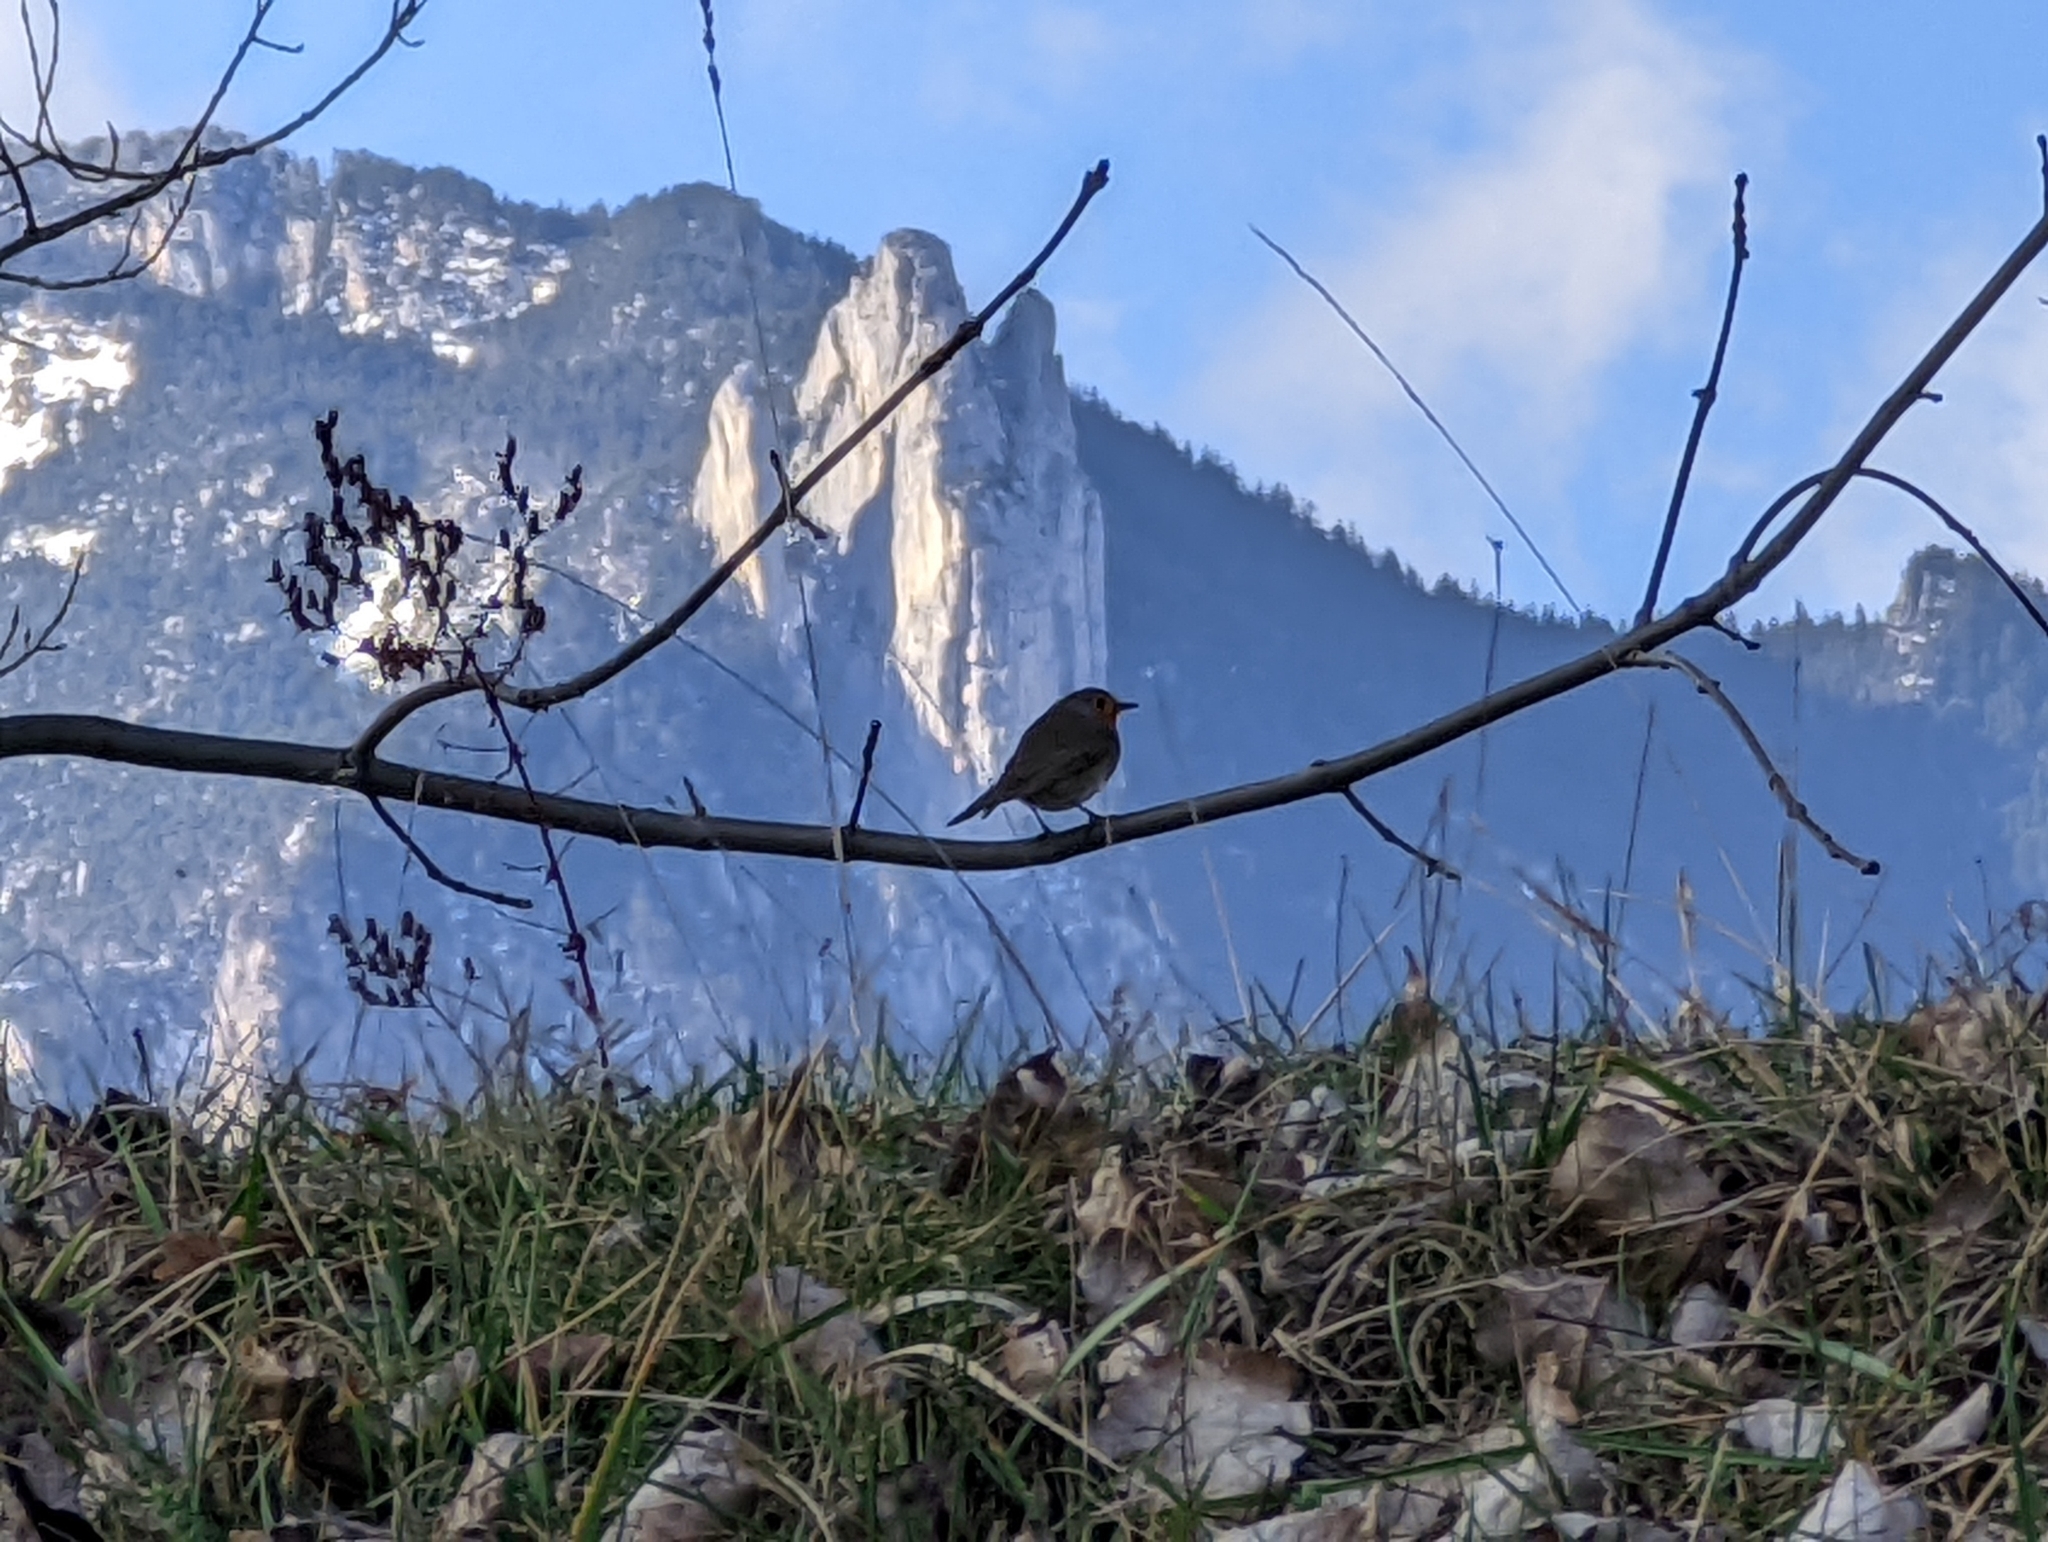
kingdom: Animalia
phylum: Chordata
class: Aves
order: Passeriformes
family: Muscicapidae
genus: Erithacus
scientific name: Erithacus rubecula
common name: European robin
